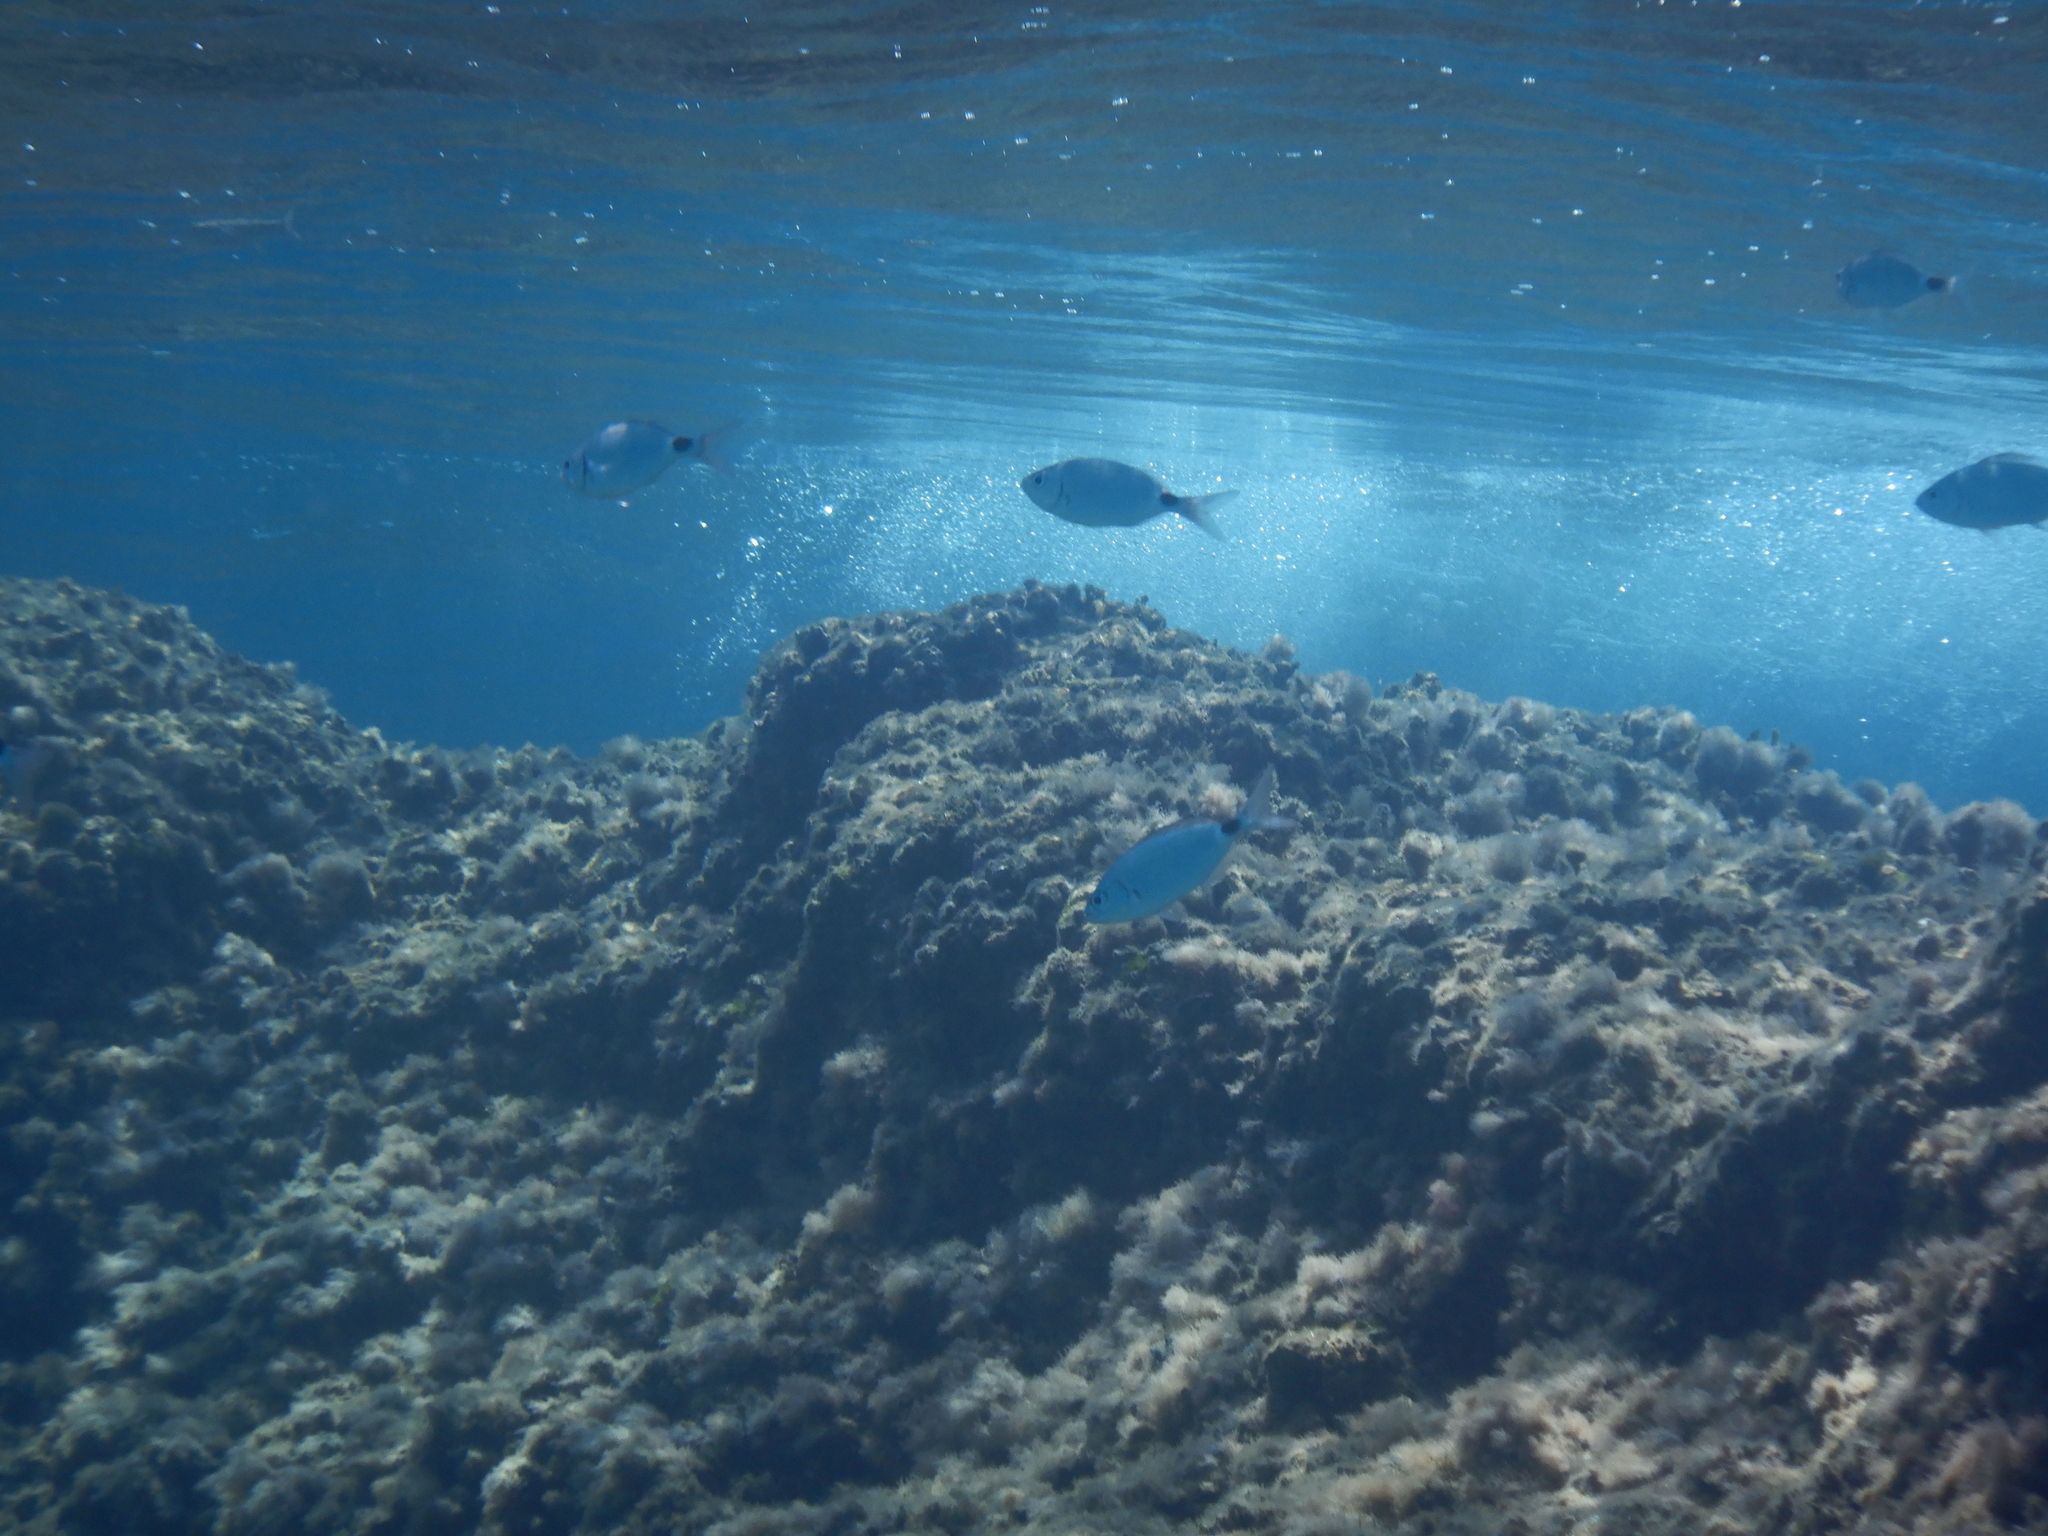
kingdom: Animalia
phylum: Chordata
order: Perciformes
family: Sparidae
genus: Oblada
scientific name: Oblada melanura
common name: Saddled seabream
